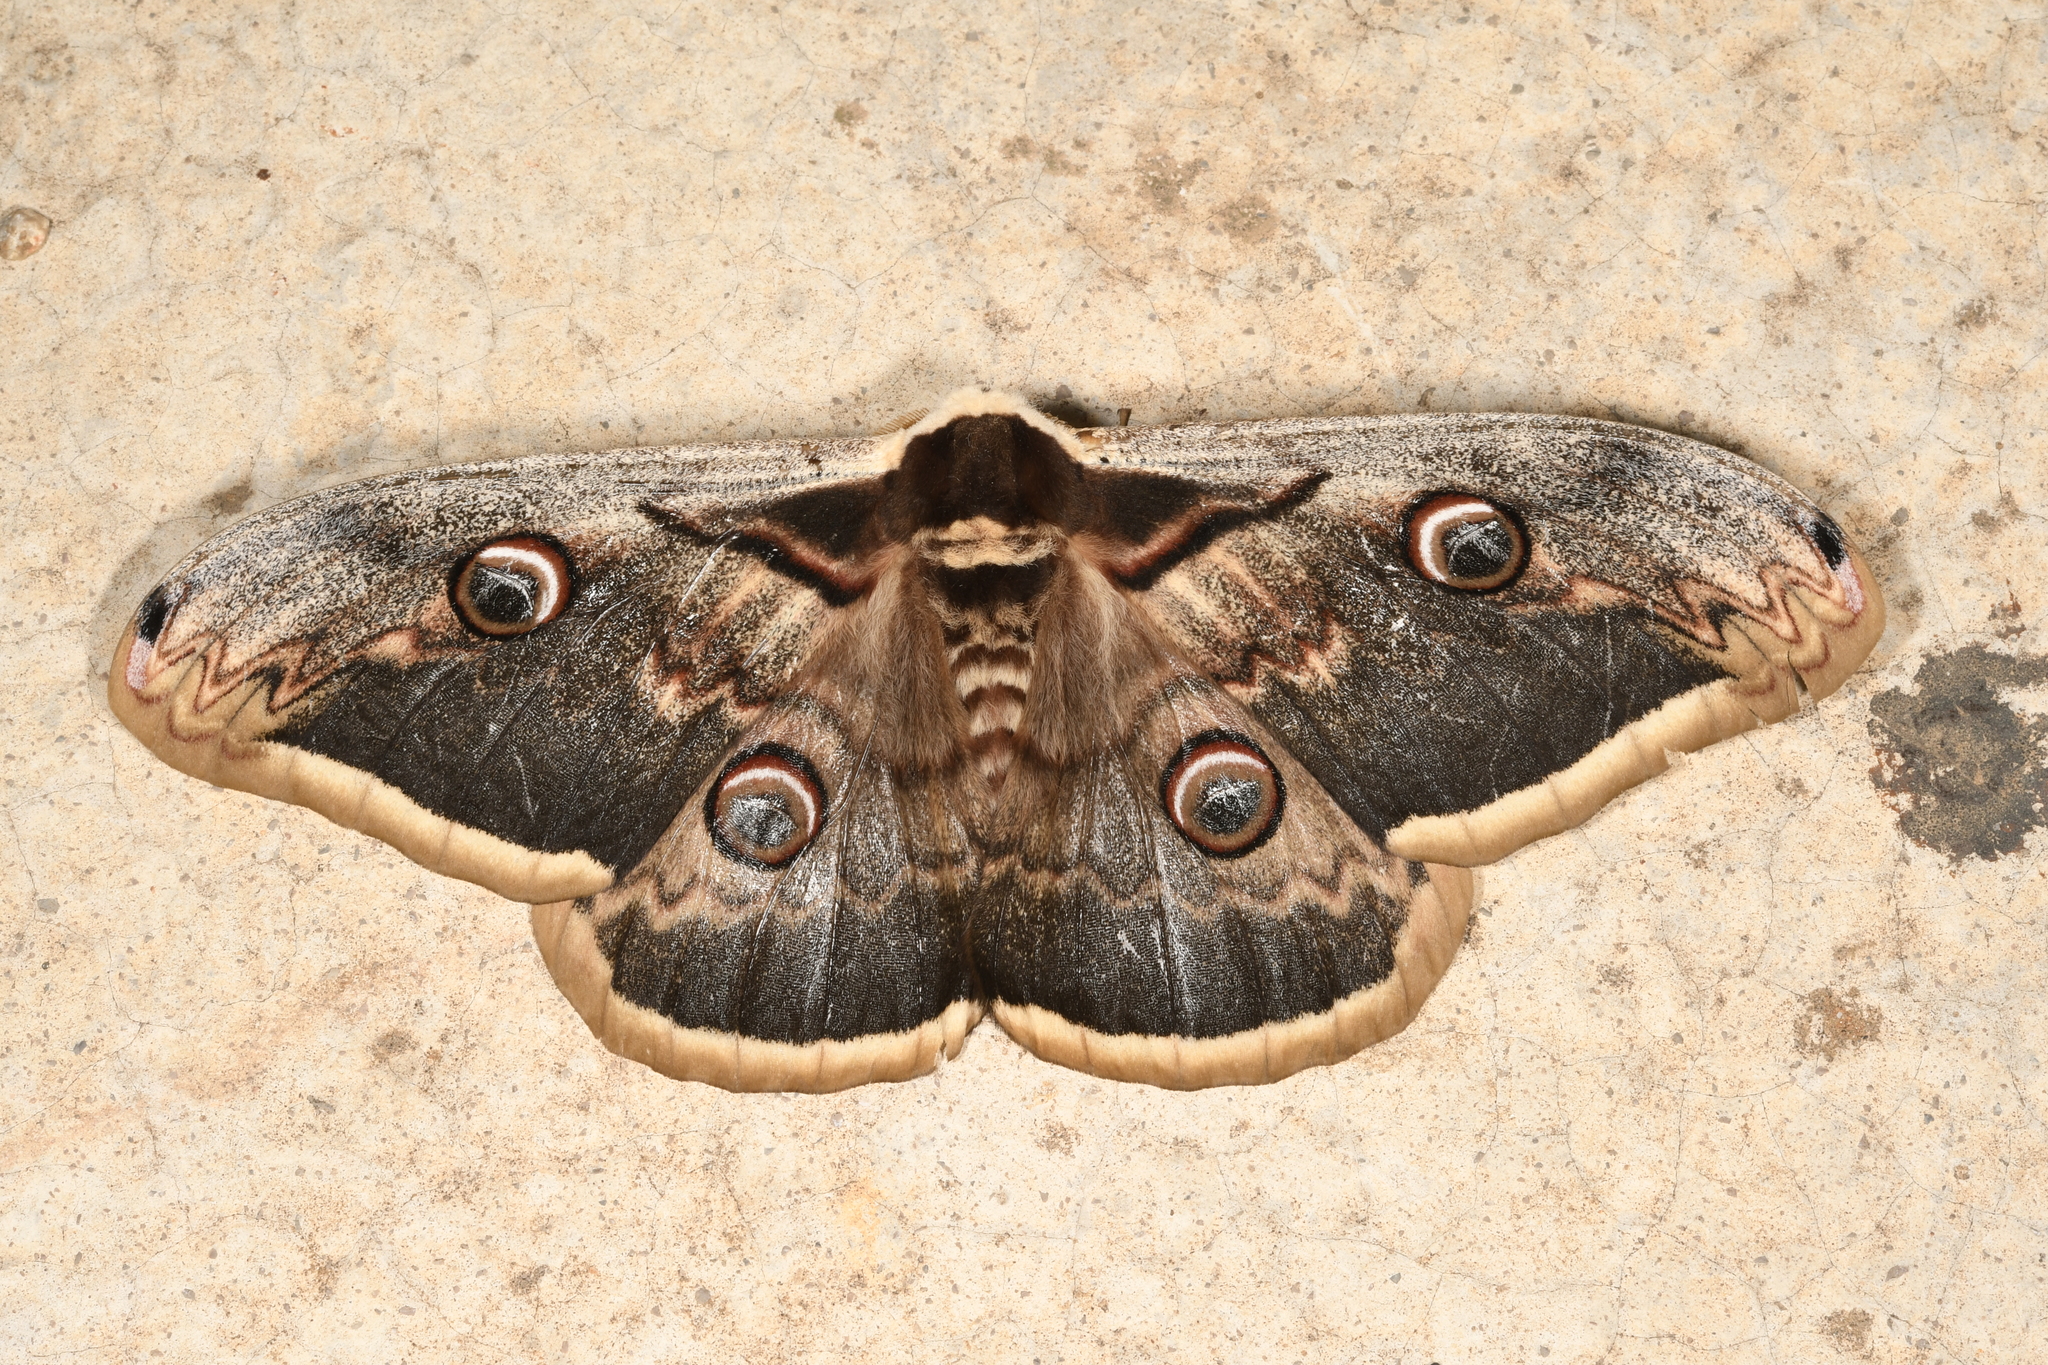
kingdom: Animalia
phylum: Arthropoda
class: Insecta
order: Lepidoptera
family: Saturniidae
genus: Saturnia
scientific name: Saturnia pyri
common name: Great peacock moth
